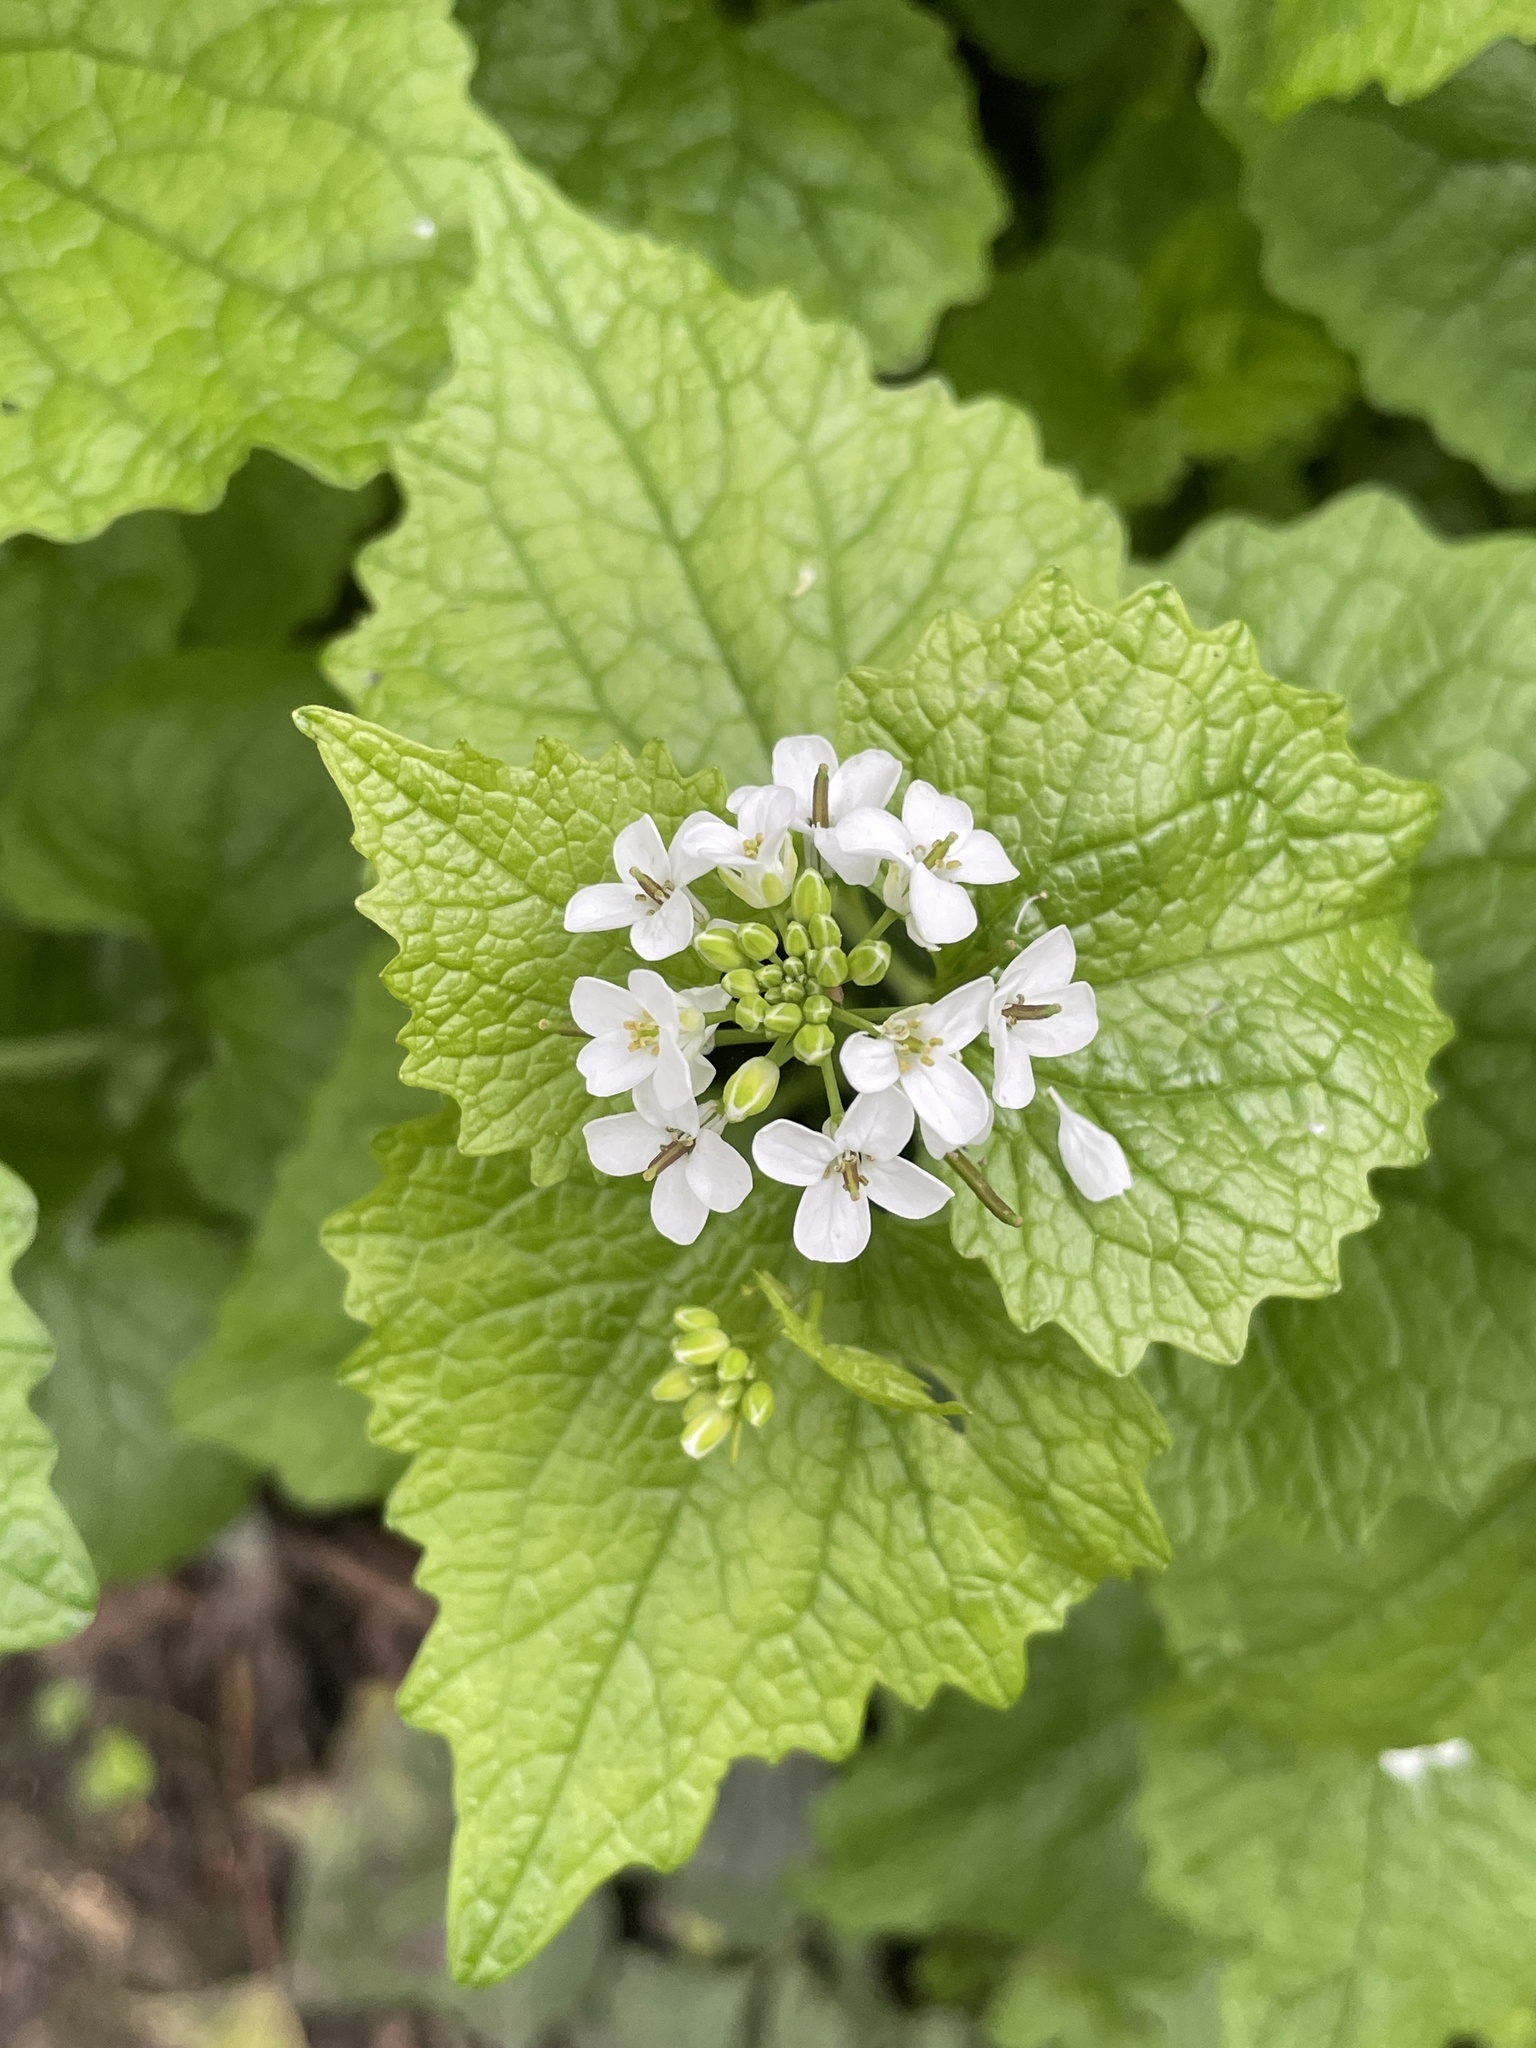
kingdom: Plantae
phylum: Tracheophyta
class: Magnoliopsida
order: Brassicales
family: Brassicaceae
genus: Alliaria
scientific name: Alliaria petiolata
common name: Garlic mustard
